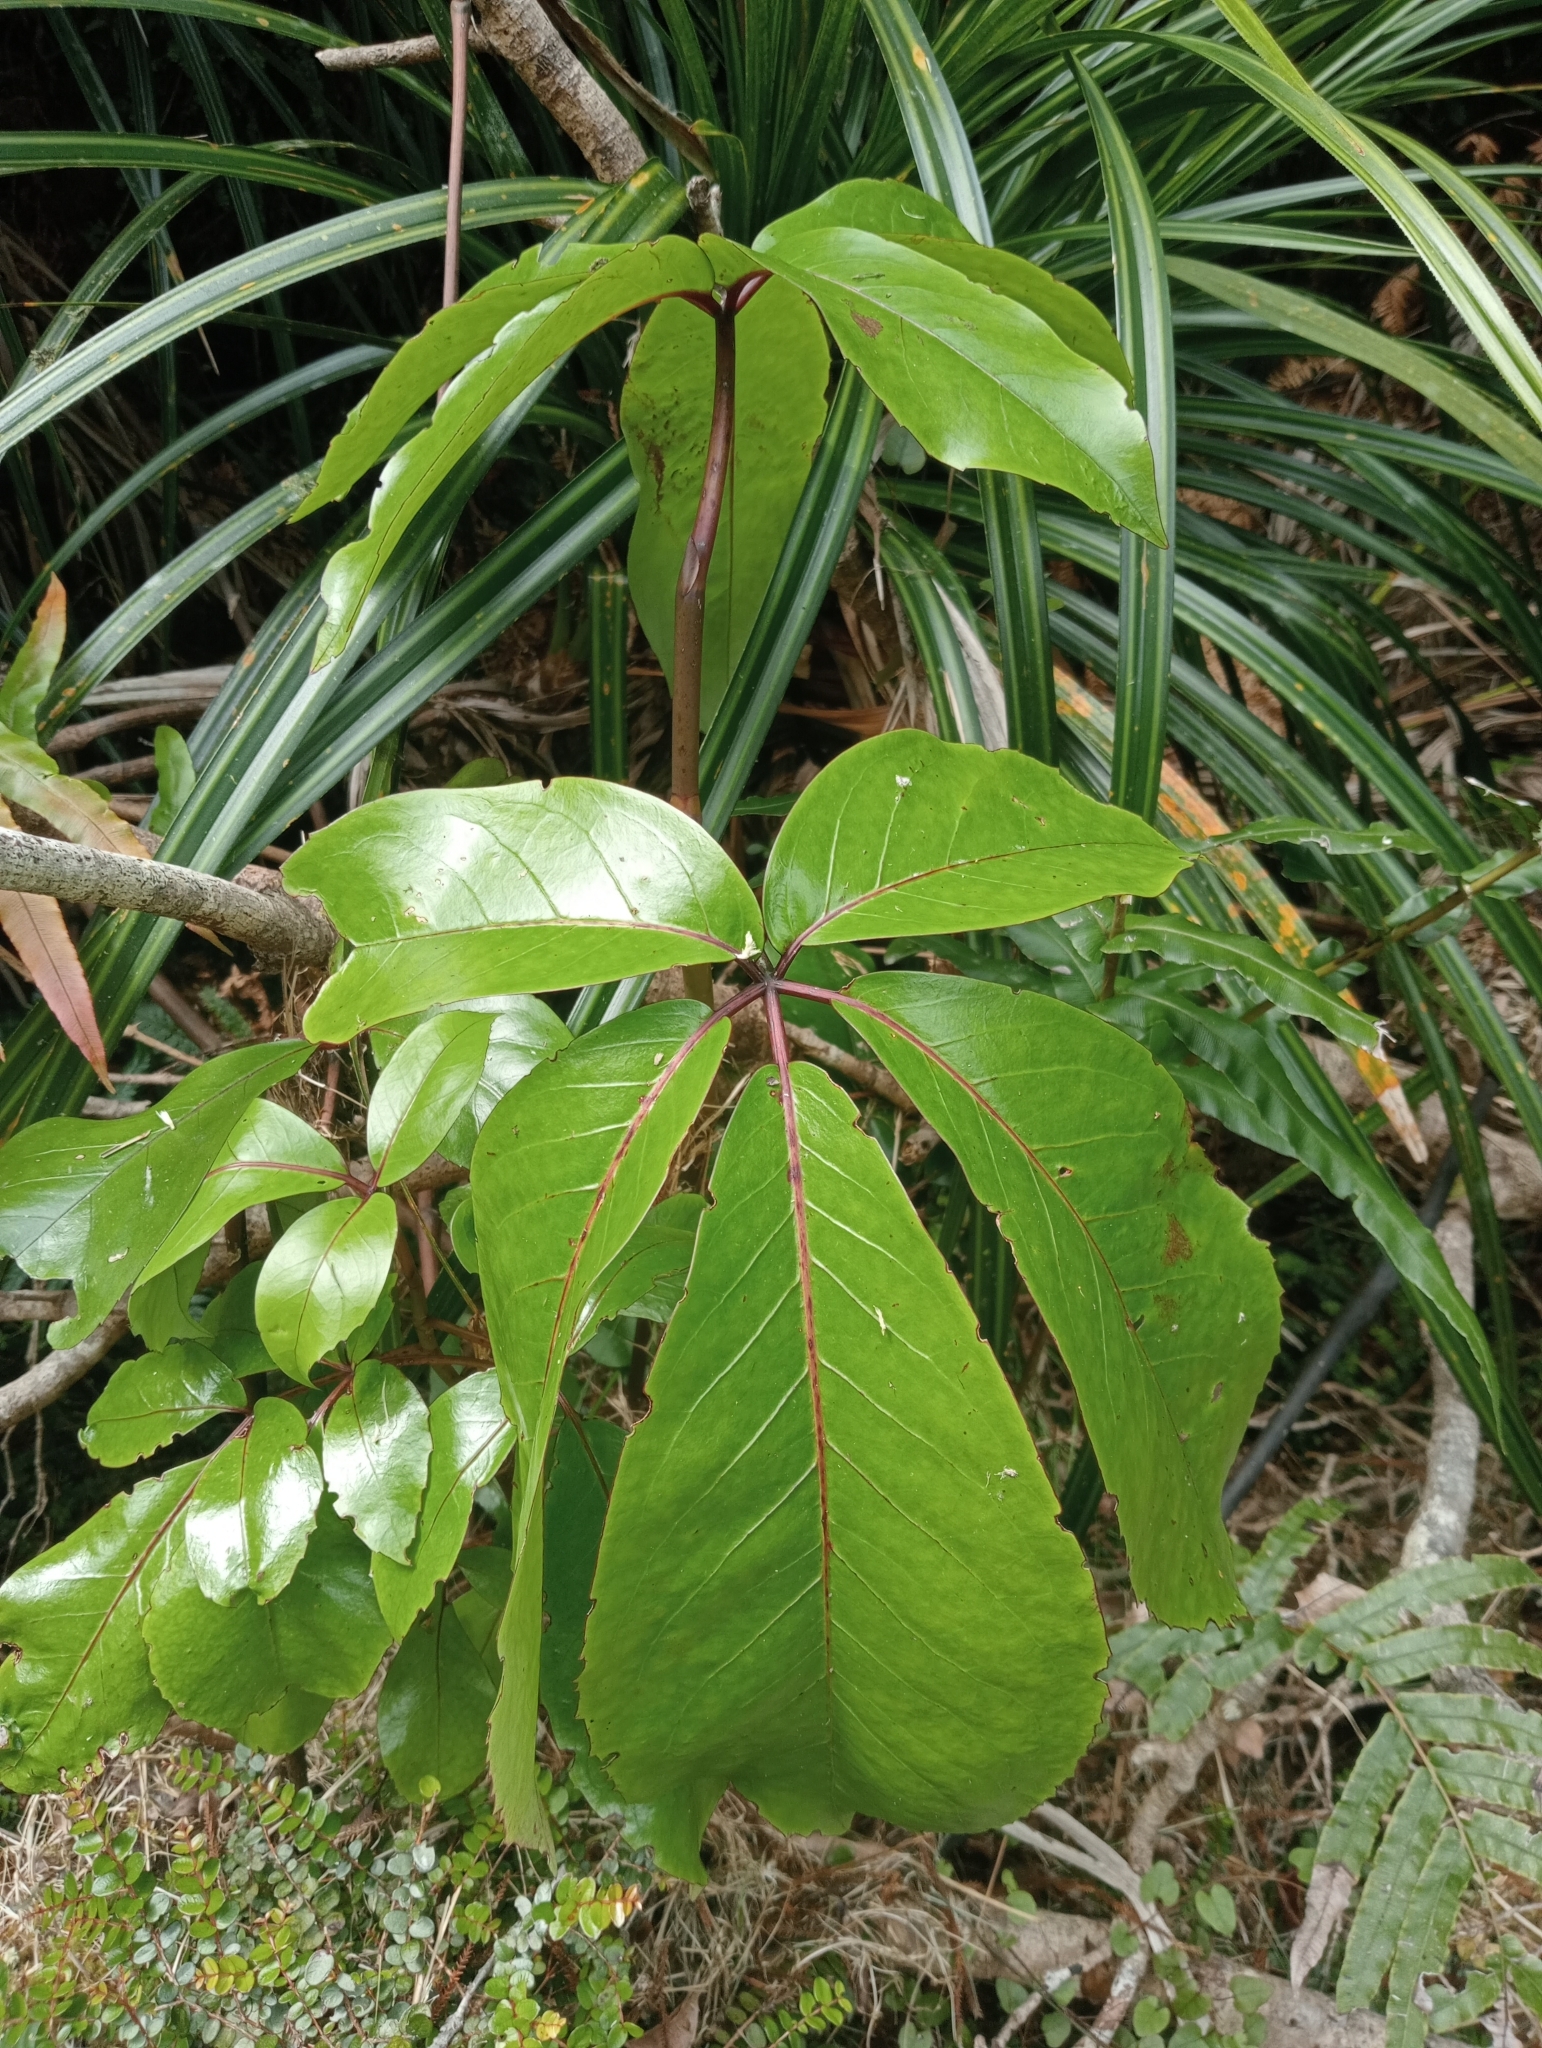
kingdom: Plantae
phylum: Tracheophyta
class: Magnoliopsida
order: Apiales
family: Araliaceae
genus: Neopanax
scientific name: Neopanax laetus
